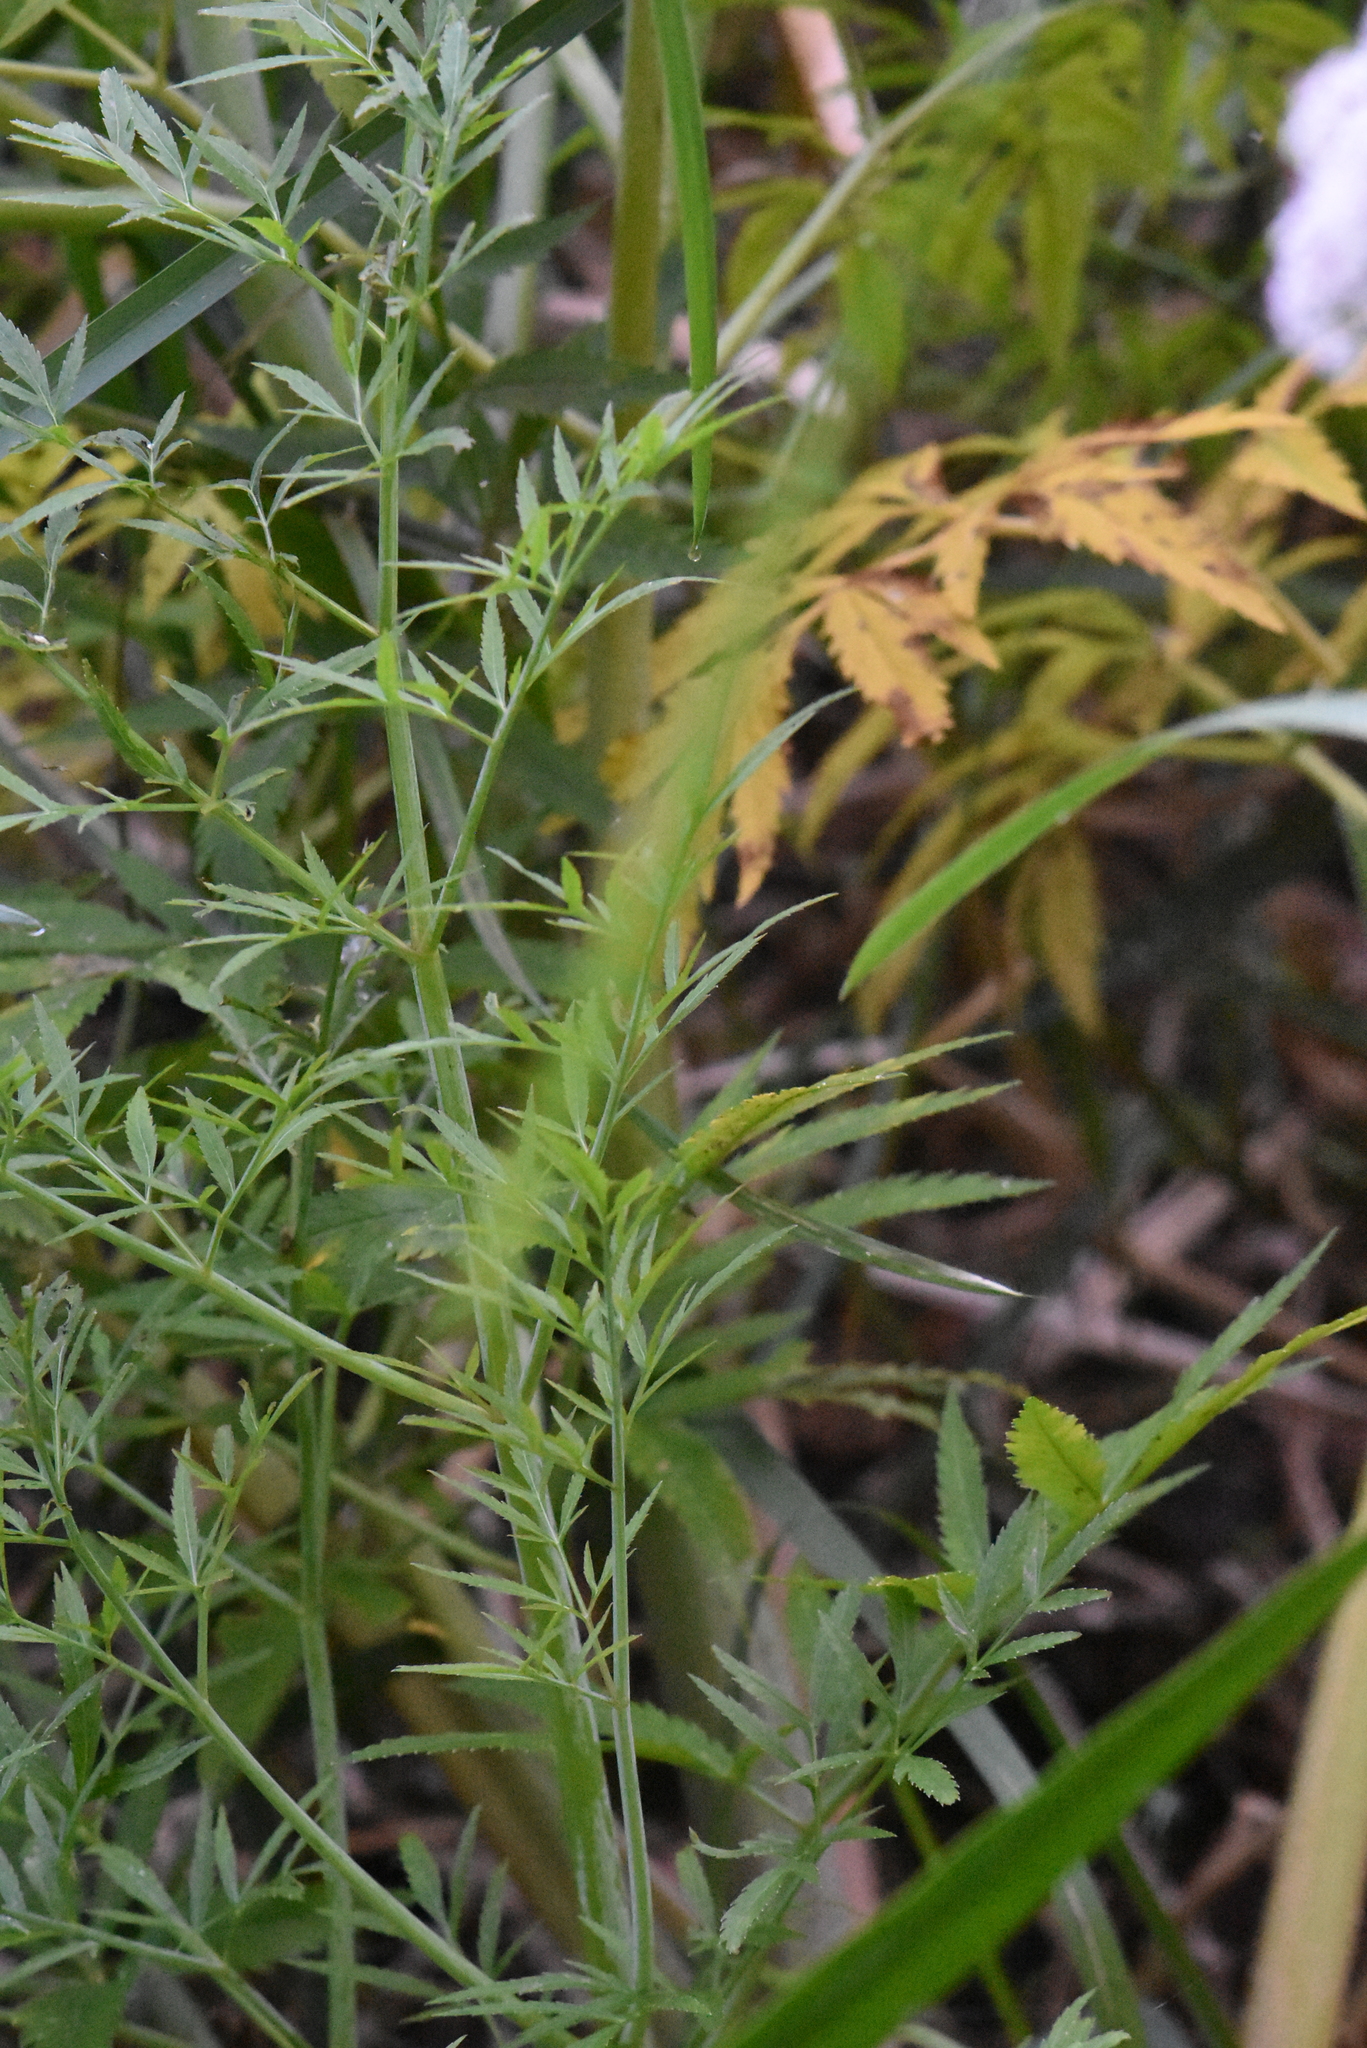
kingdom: Plantae
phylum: Tracheophyta
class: Magnoliopsida
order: Apiales
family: Apiaceae
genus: Cicuta
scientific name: Cicuta virosa
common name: Cowbane
